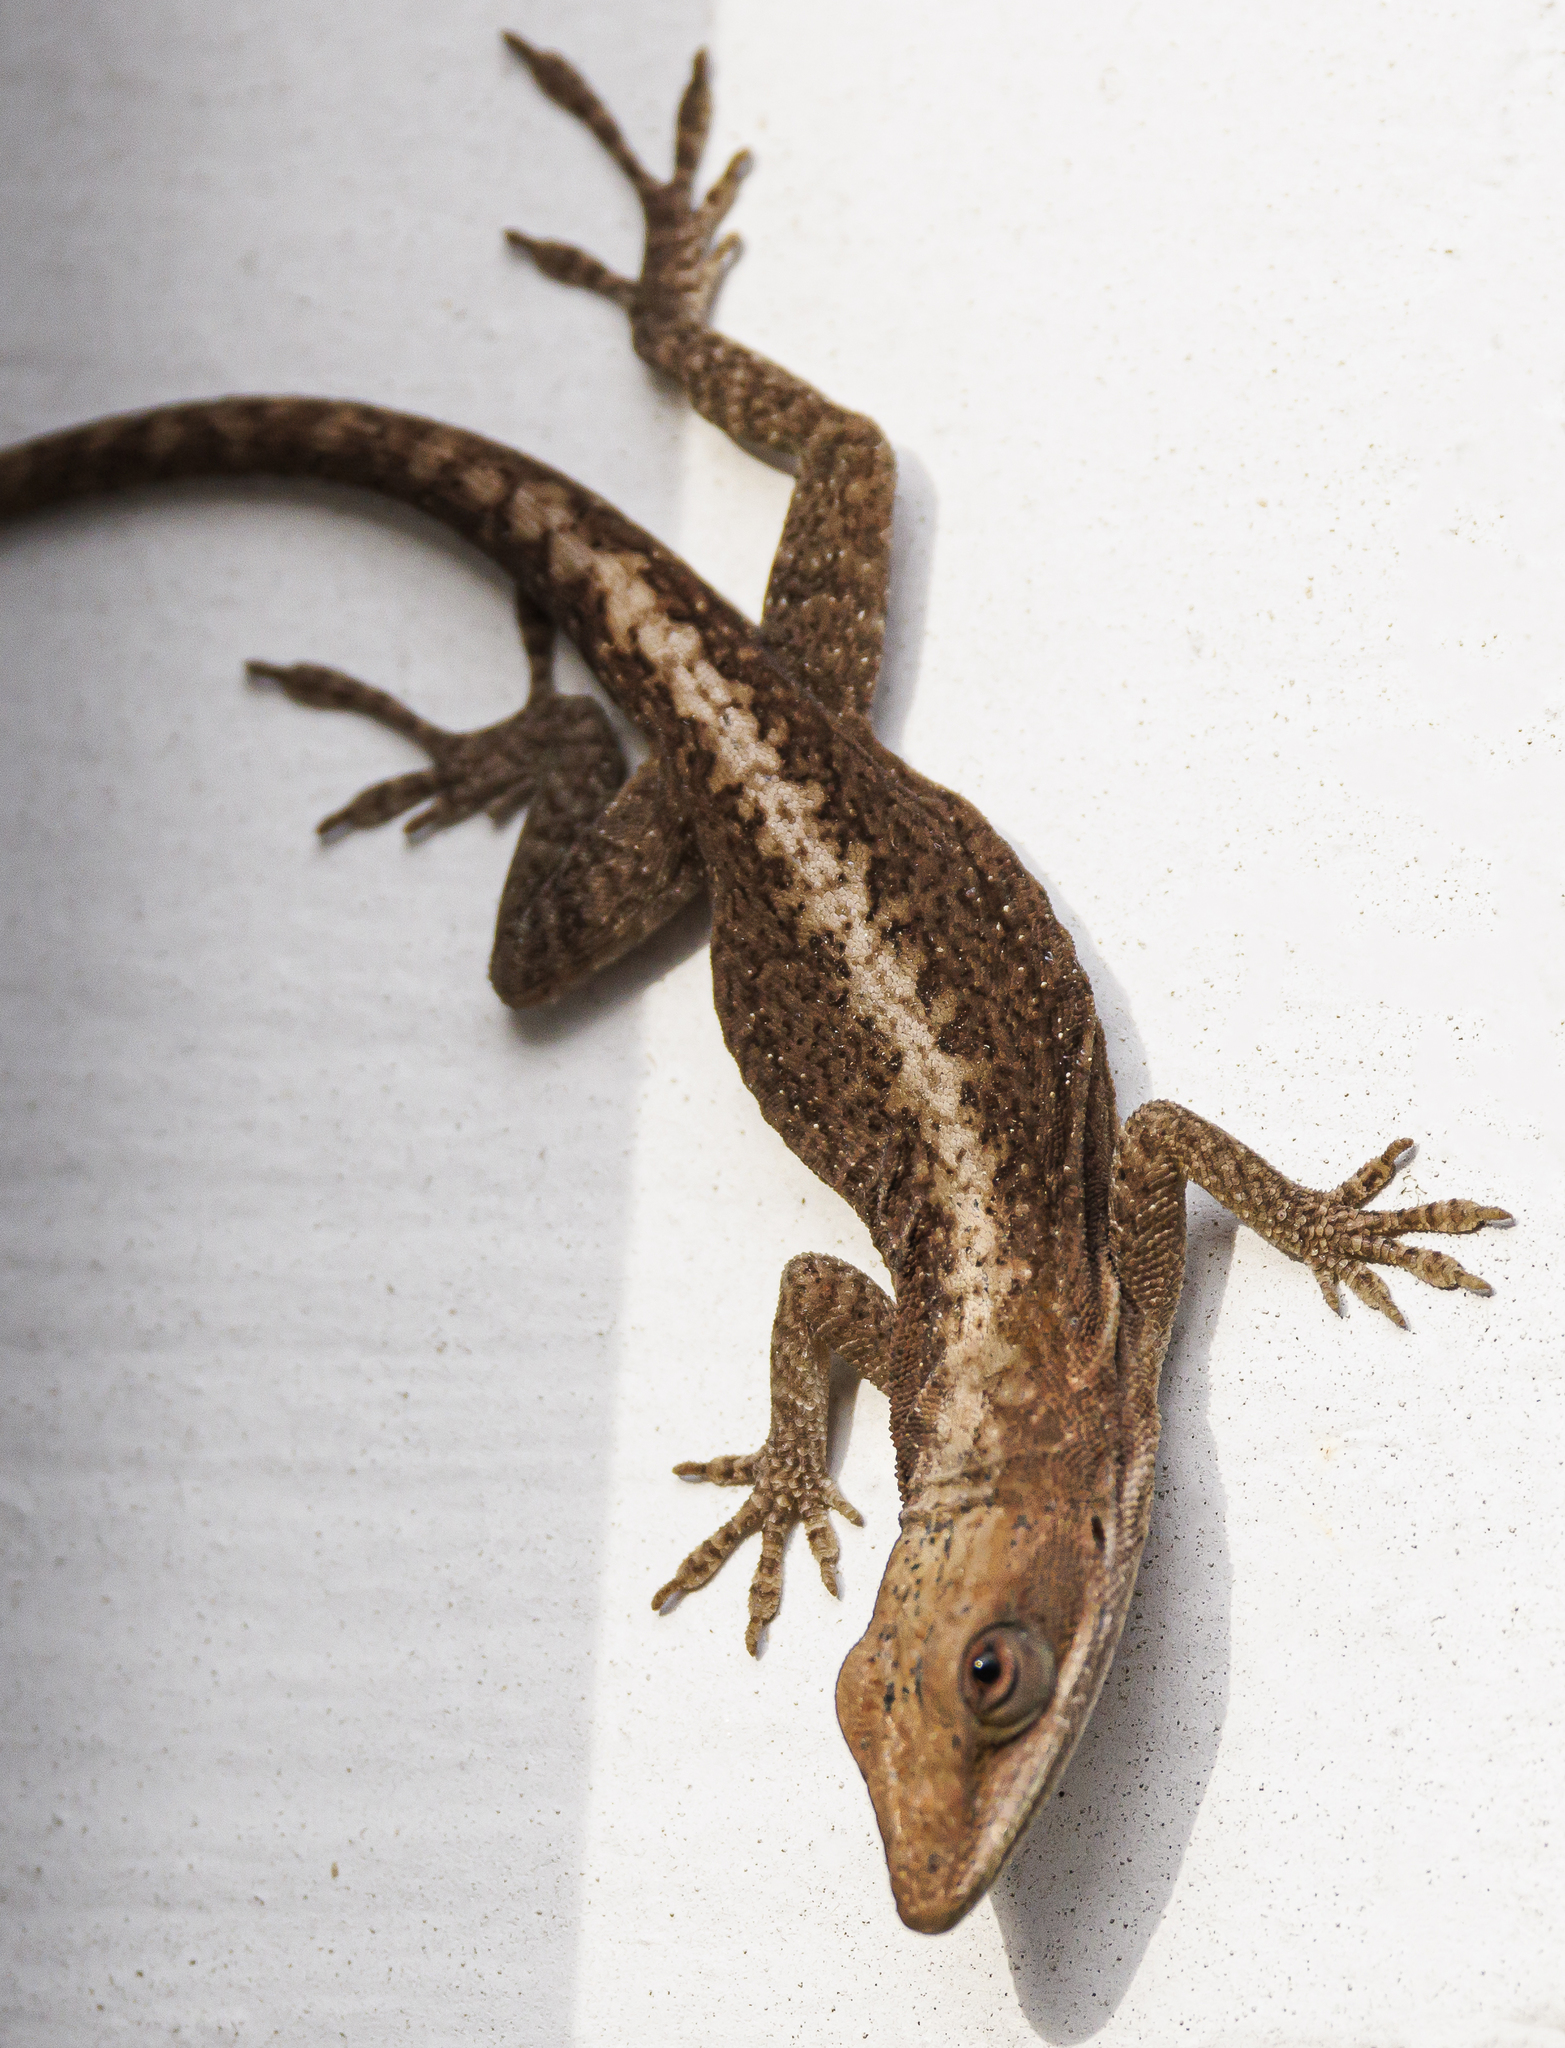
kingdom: Animalia
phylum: Chordata
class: Squamata
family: Dactyloidae
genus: Anolis
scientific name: Anolis carolinensis
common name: Green anole
